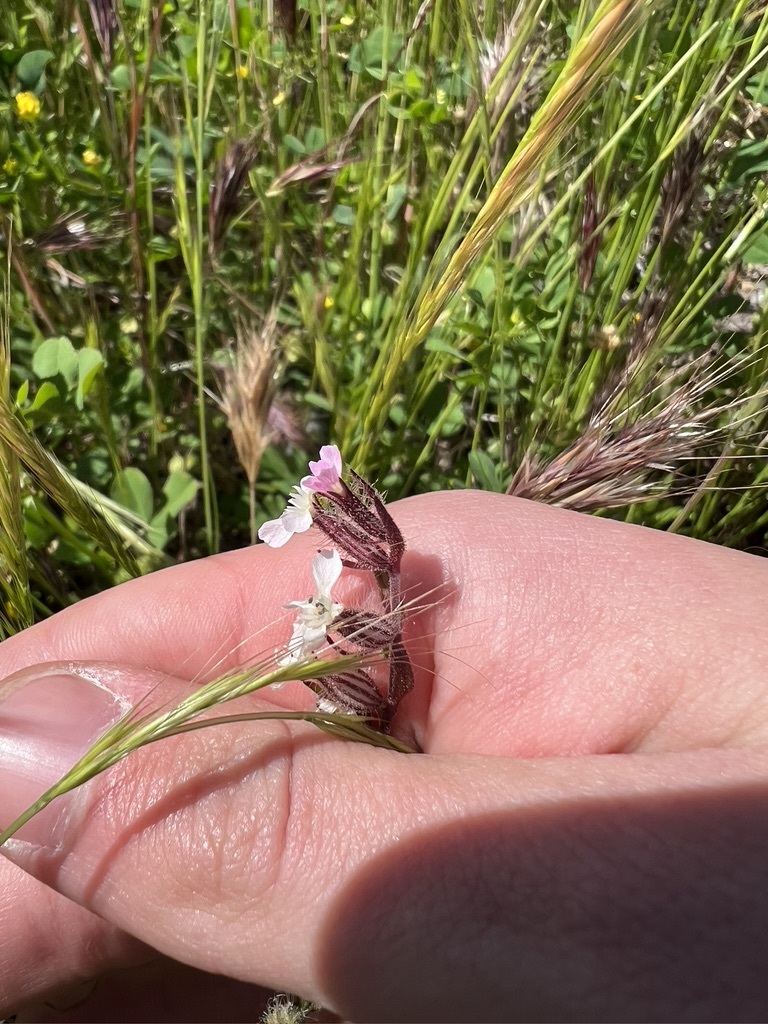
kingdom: Plantae
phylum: Tracheophyta
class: Magnoliopsida
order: Caryophyllales
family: Caryophyllaceae
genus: Silene
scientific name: Silene gallica
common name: Small-flowered catchfly
